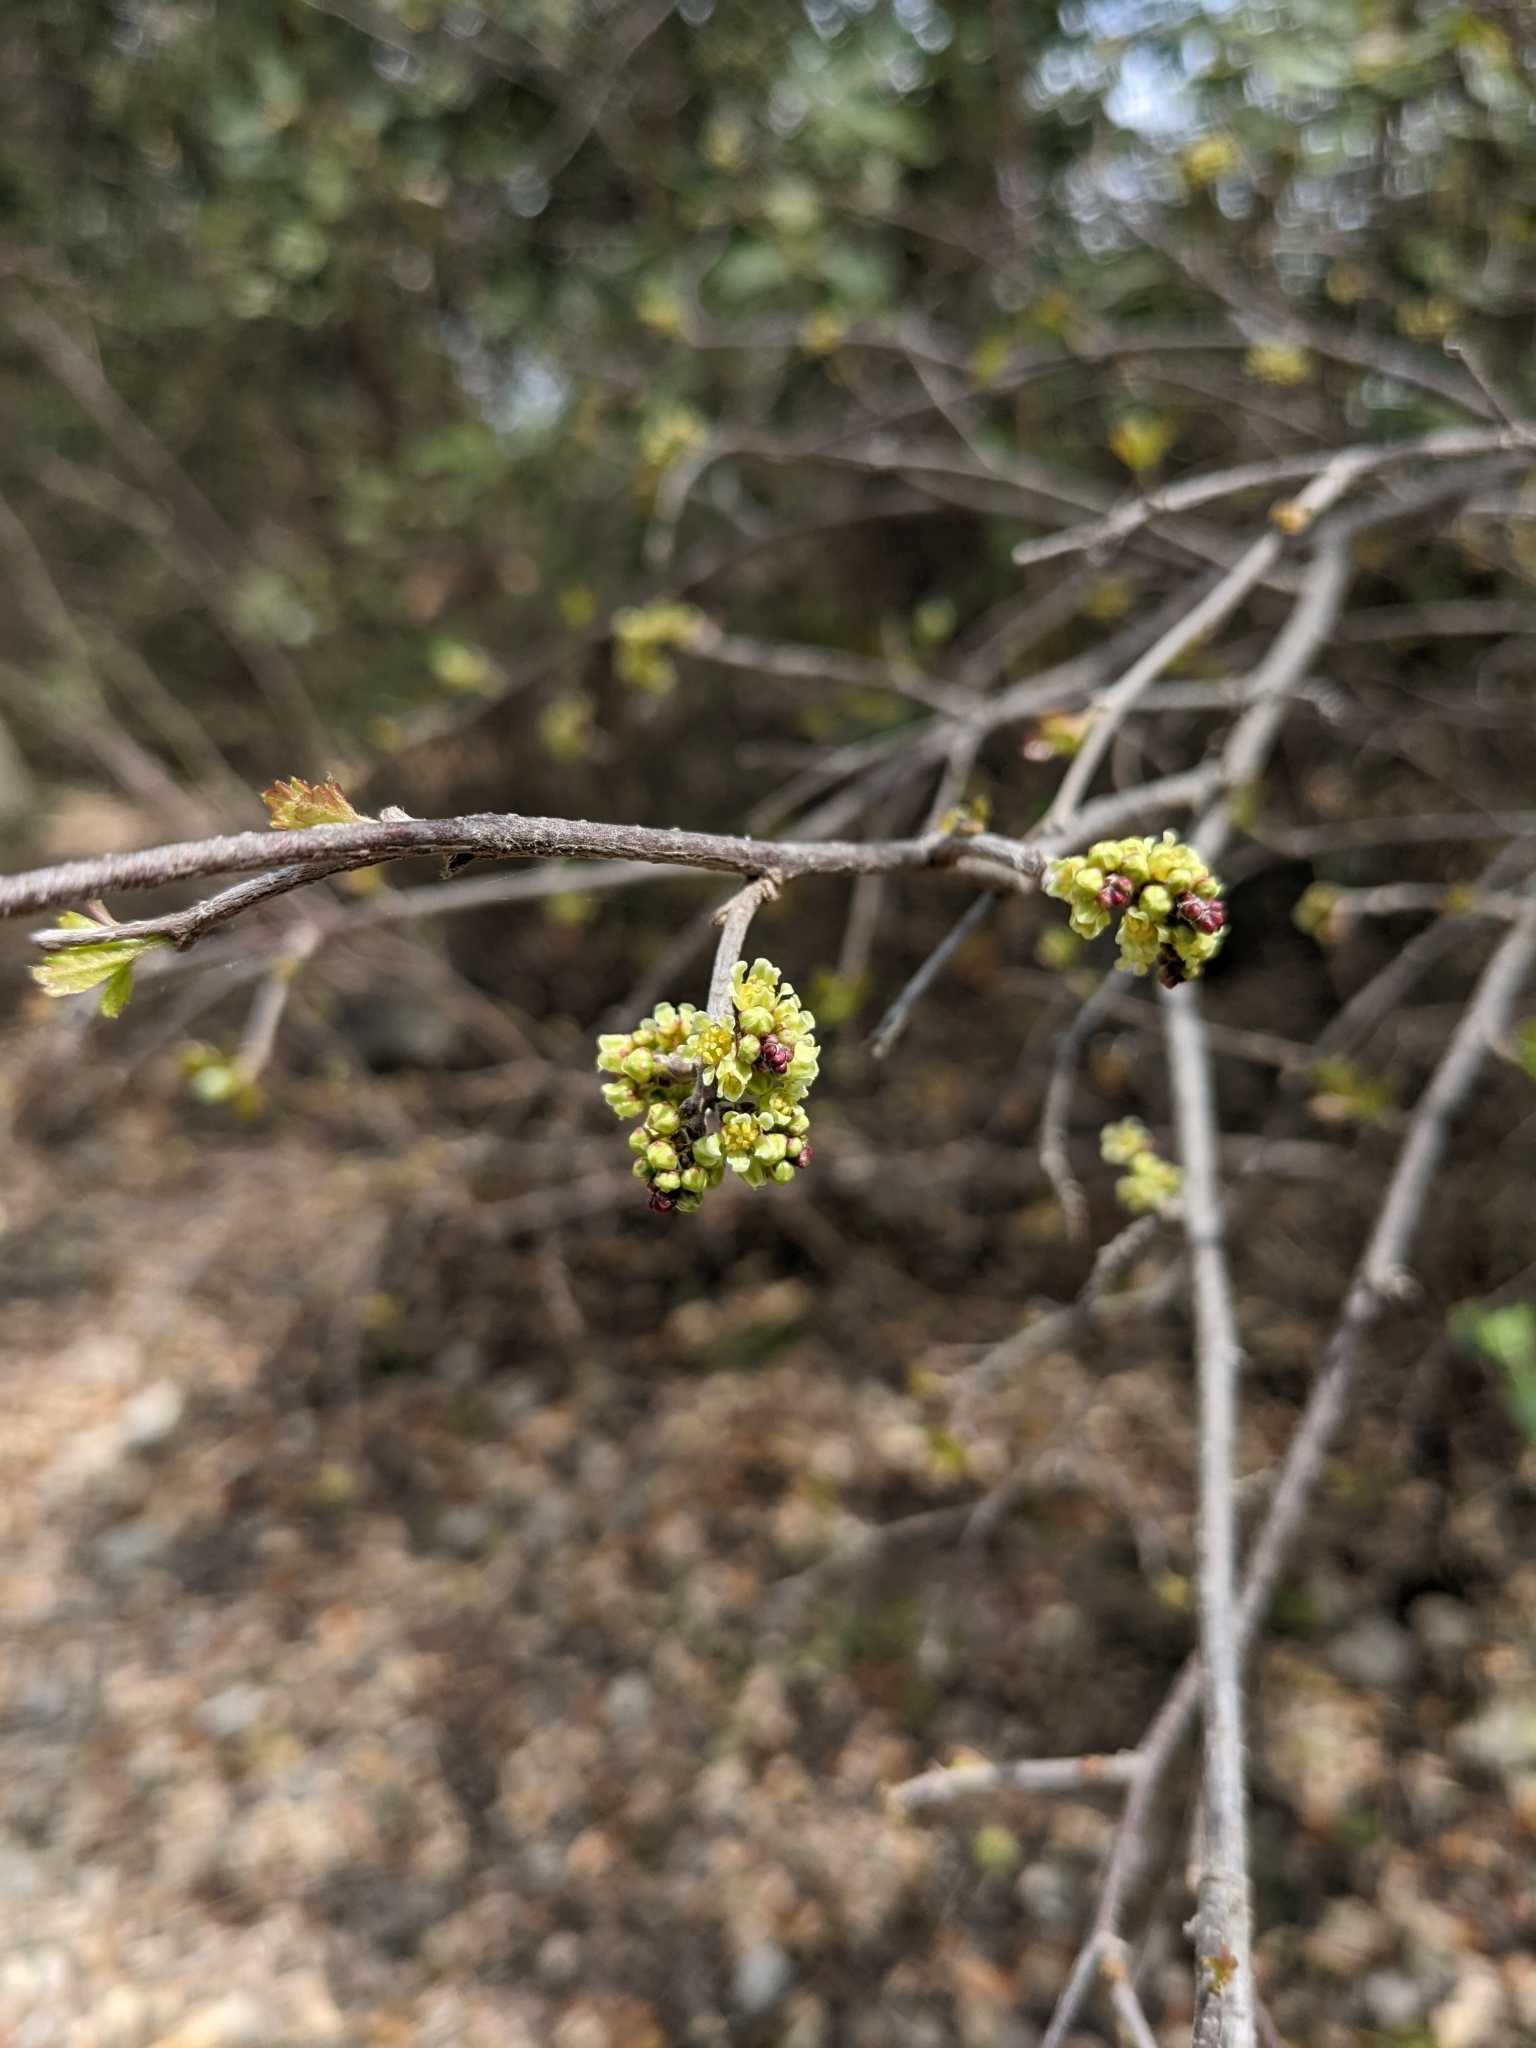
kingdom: Plantae
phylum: Tracheophyta
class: Magnoliopsida
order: Sapindales
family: Anacardiaceae
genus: Rhus
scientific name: Rhus aromatica
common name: Aromatic sumac
